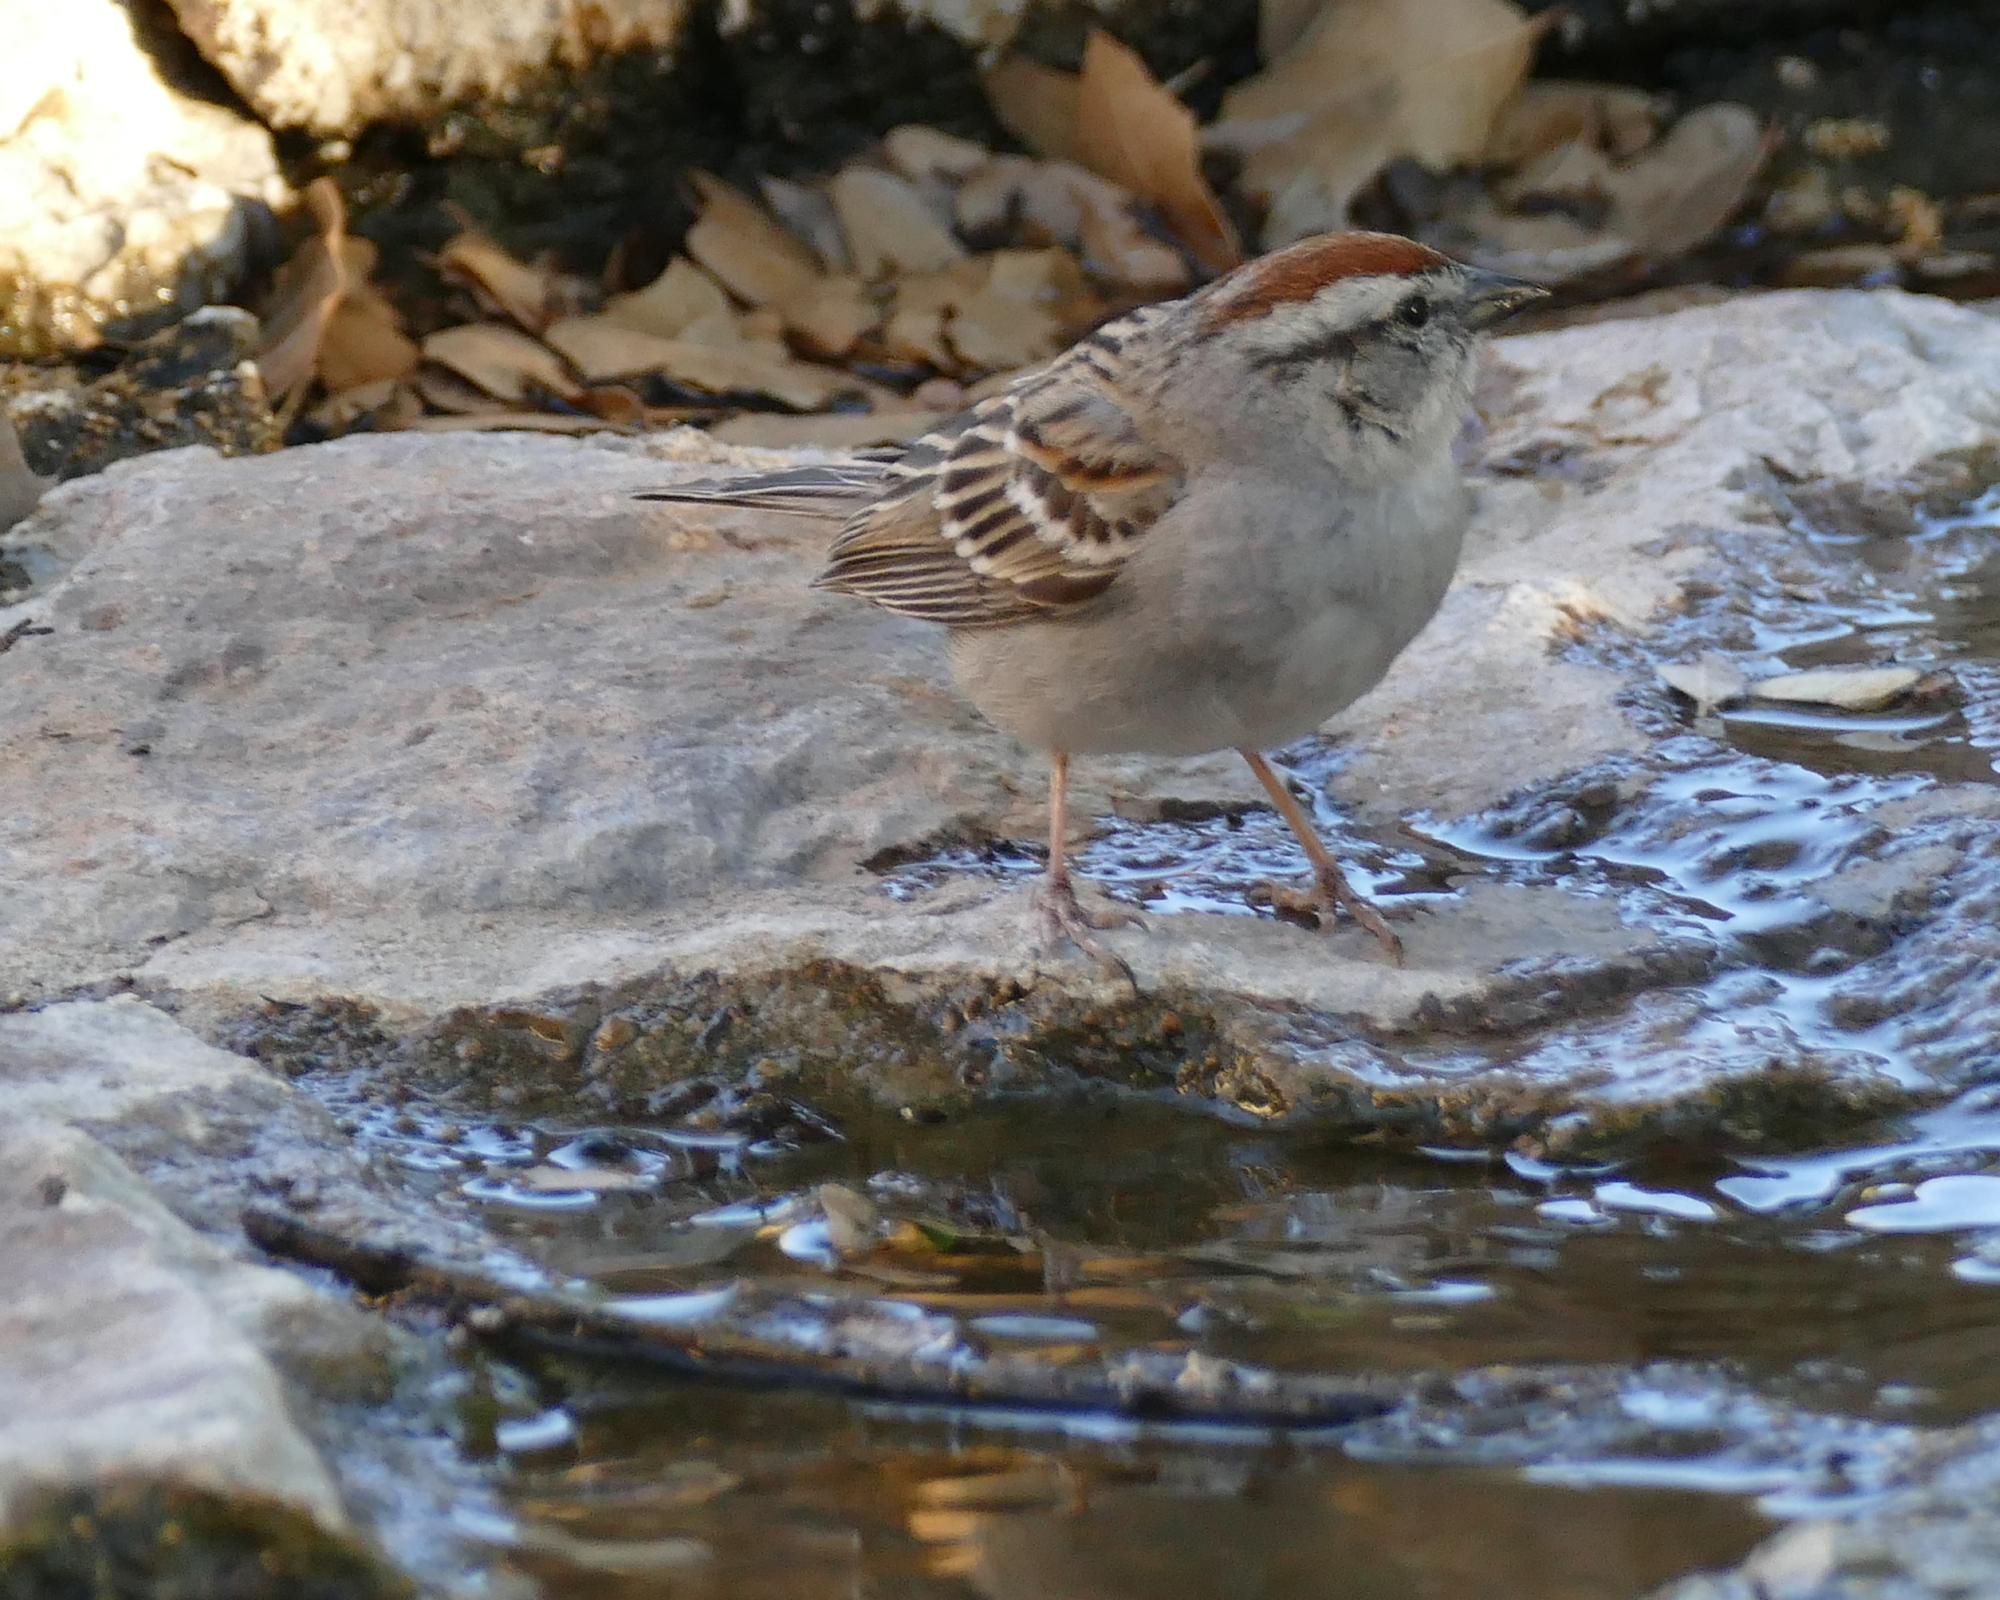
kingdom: Animalia
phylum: Chordata
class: Aves
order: Passeriformes
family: Passerellidae
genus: Spizella
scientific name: Spizella passerina
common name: Chipping sparrow
